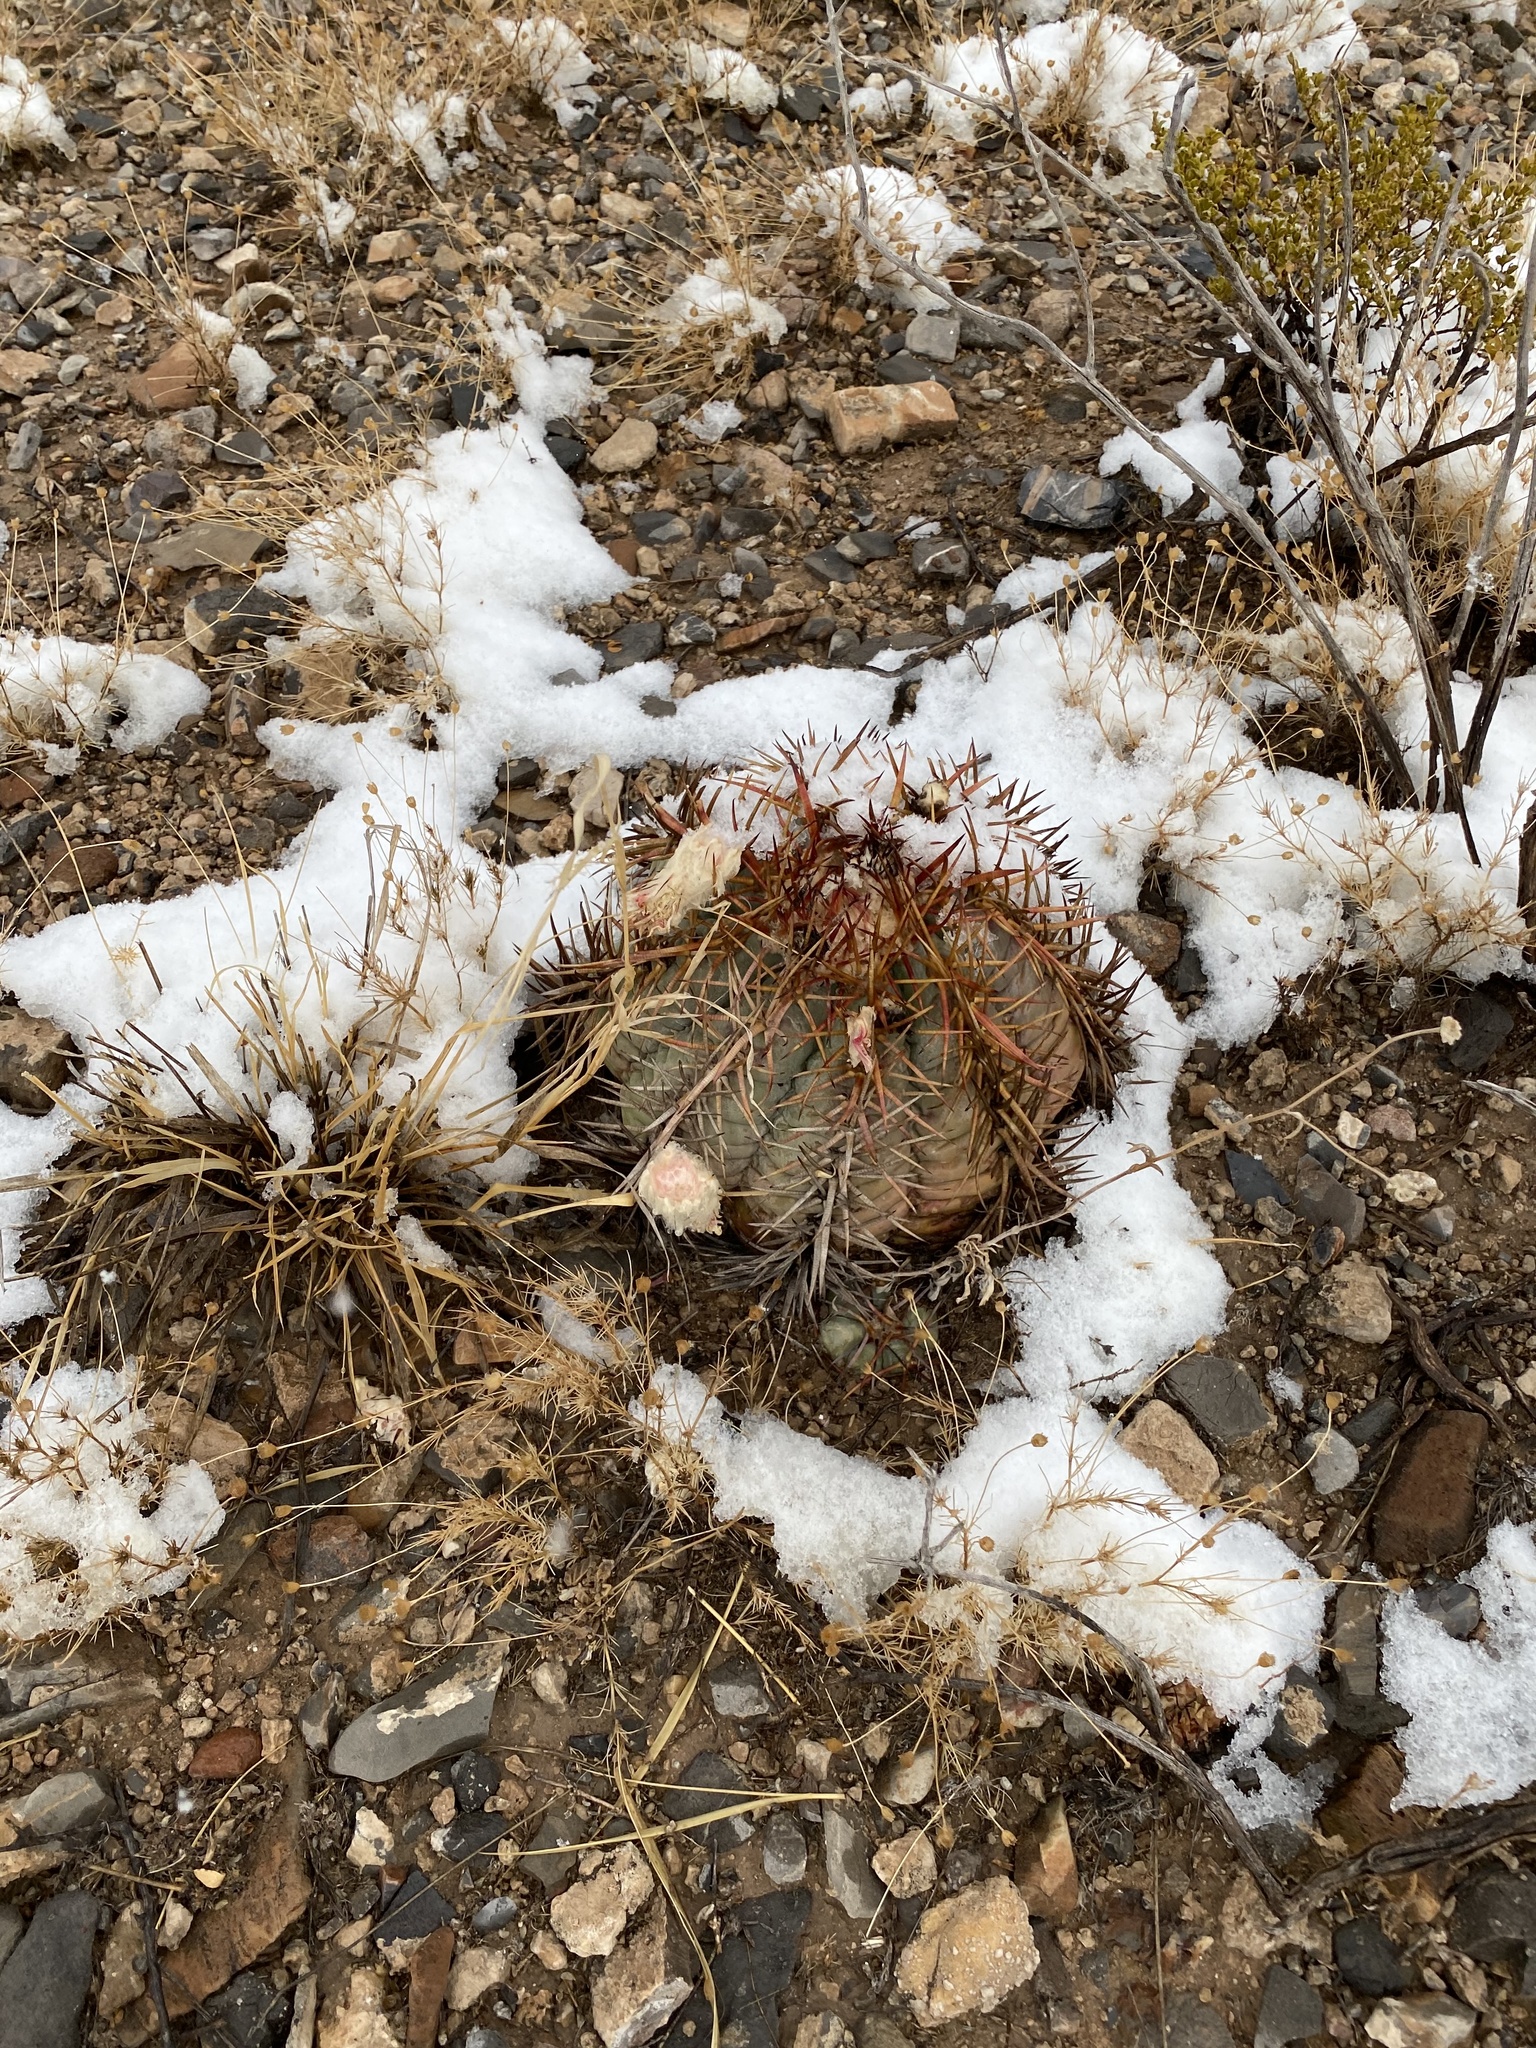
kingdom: Plantae
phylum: Tracheophyta
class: Magnoliopsida
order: Caryophyllales
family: Cactaceae
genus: Echinocactus
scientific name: Echinocactus horizonthalonius
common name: Devilshead
